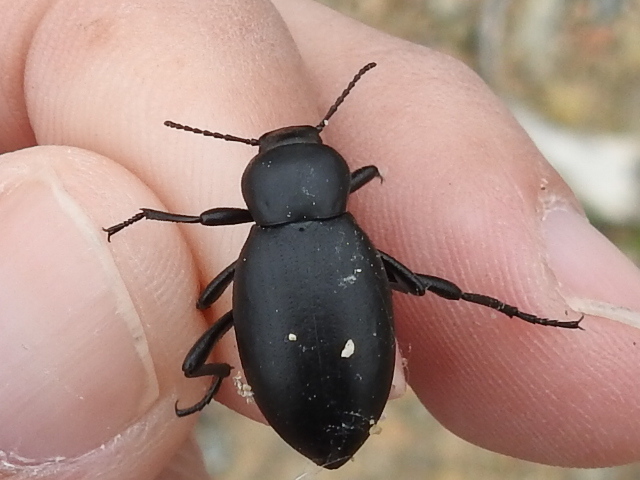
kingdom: Animalia
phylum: Arthropoda
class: Insecta
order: Coleoptera
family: Tenebrionidae
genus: Eleodes
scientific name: Eleodes carbonaria
